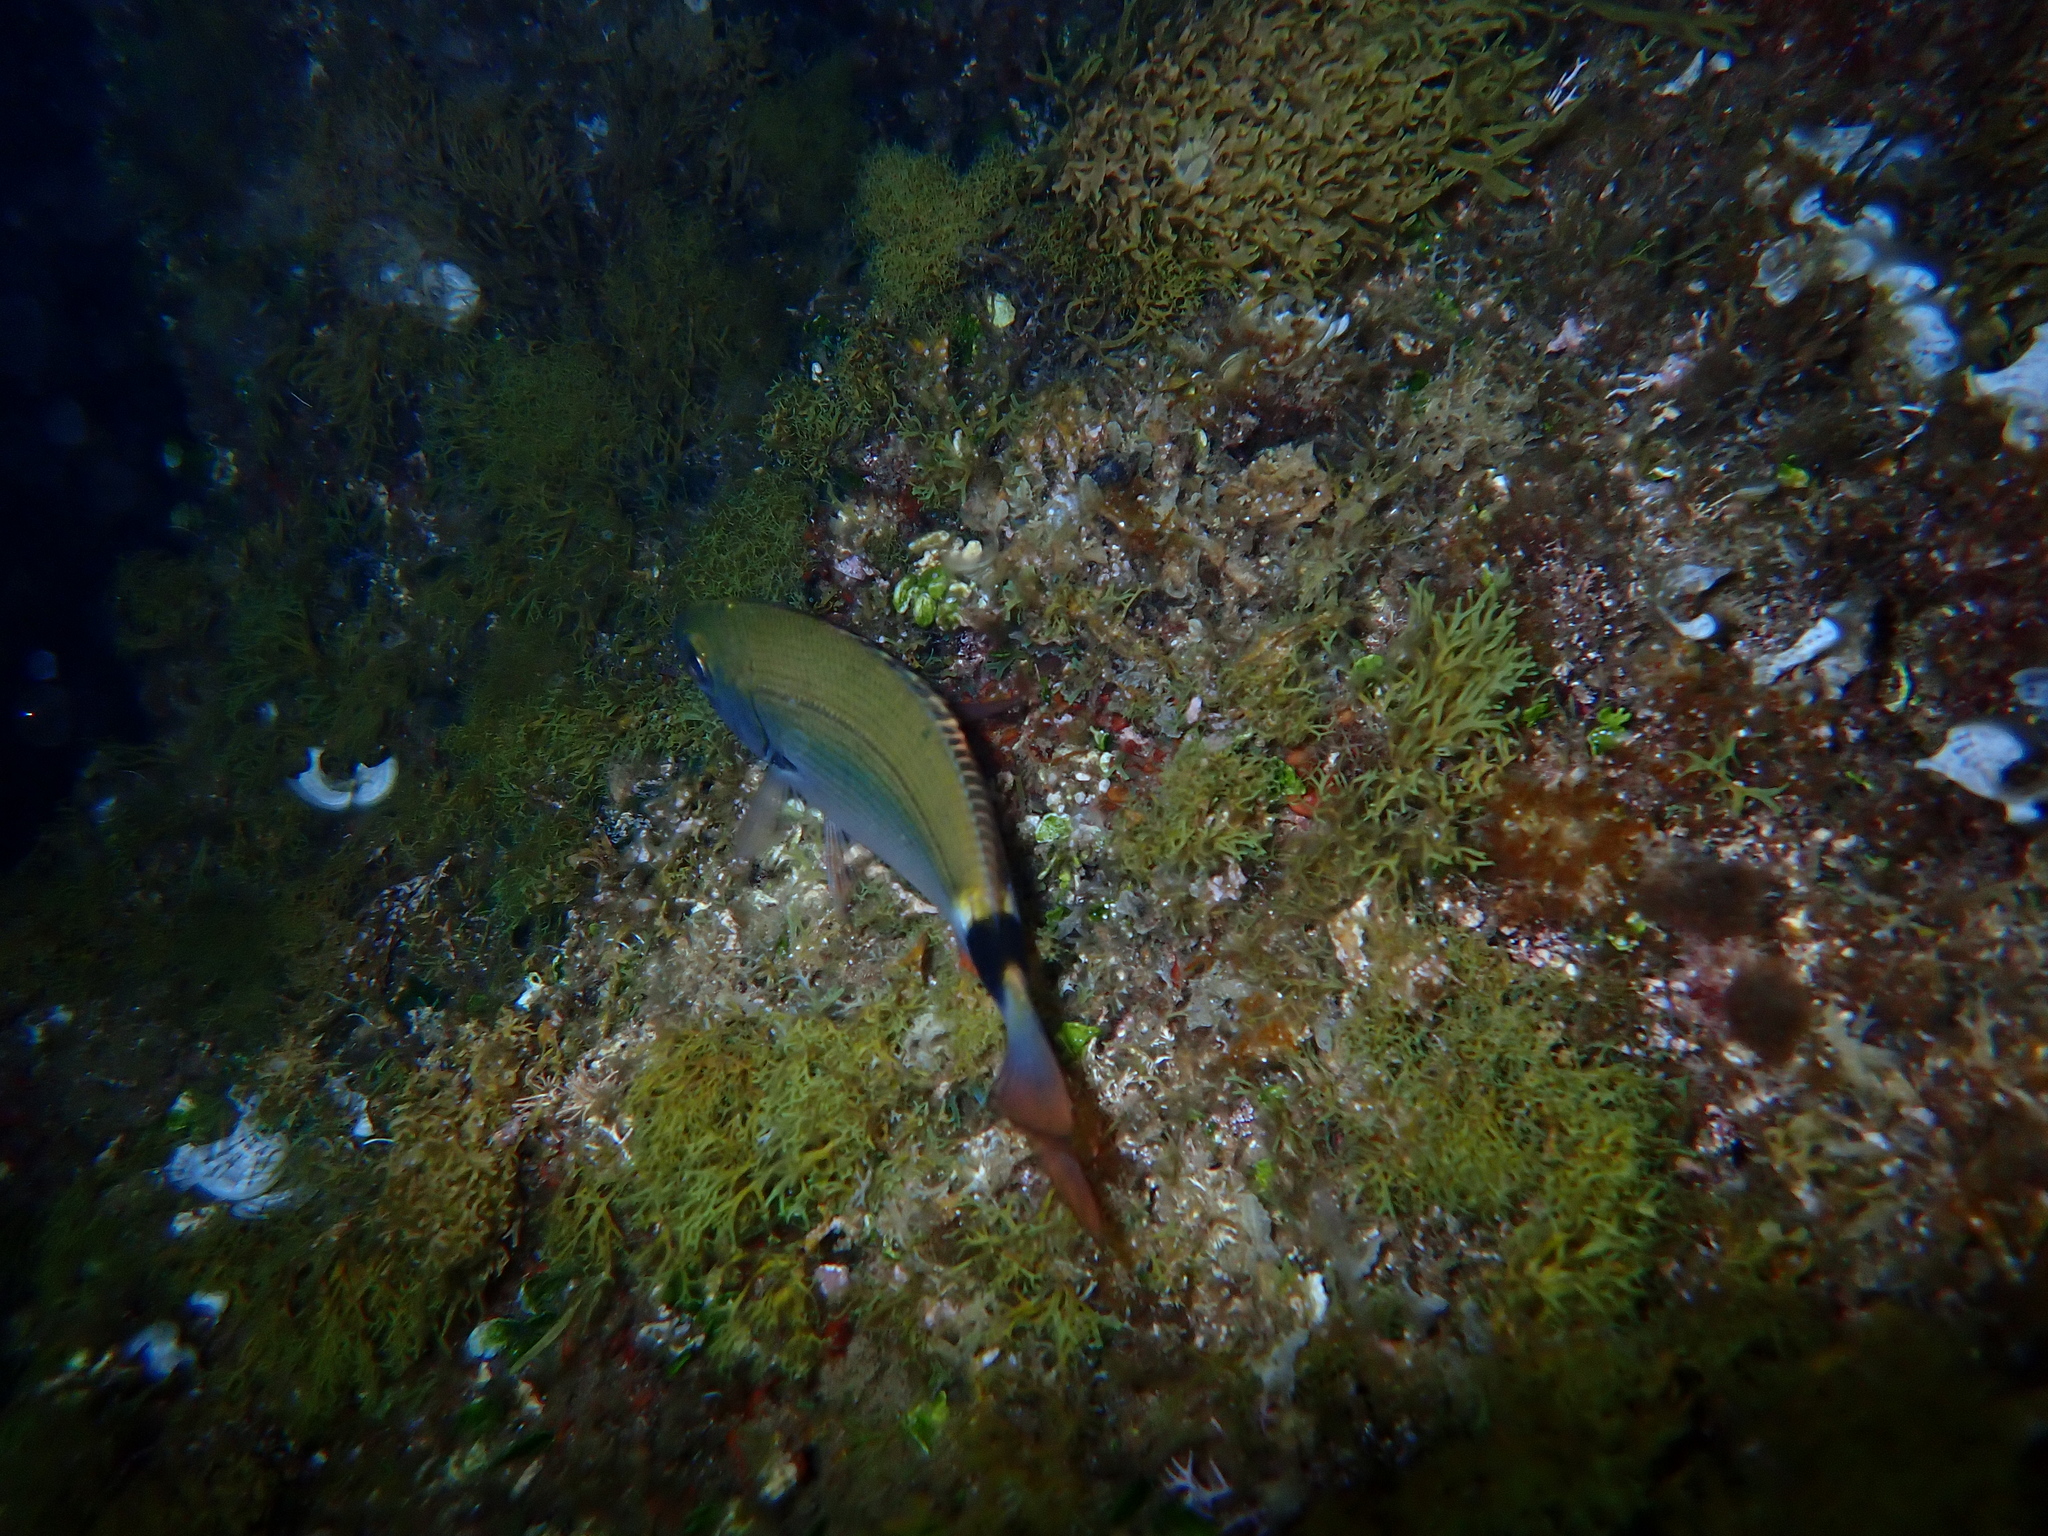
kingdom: Animalia
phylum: Chordata
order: Perciformes
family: Sparidae
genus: Oblada
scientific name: Oblada melanura
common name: Saddled seabream
